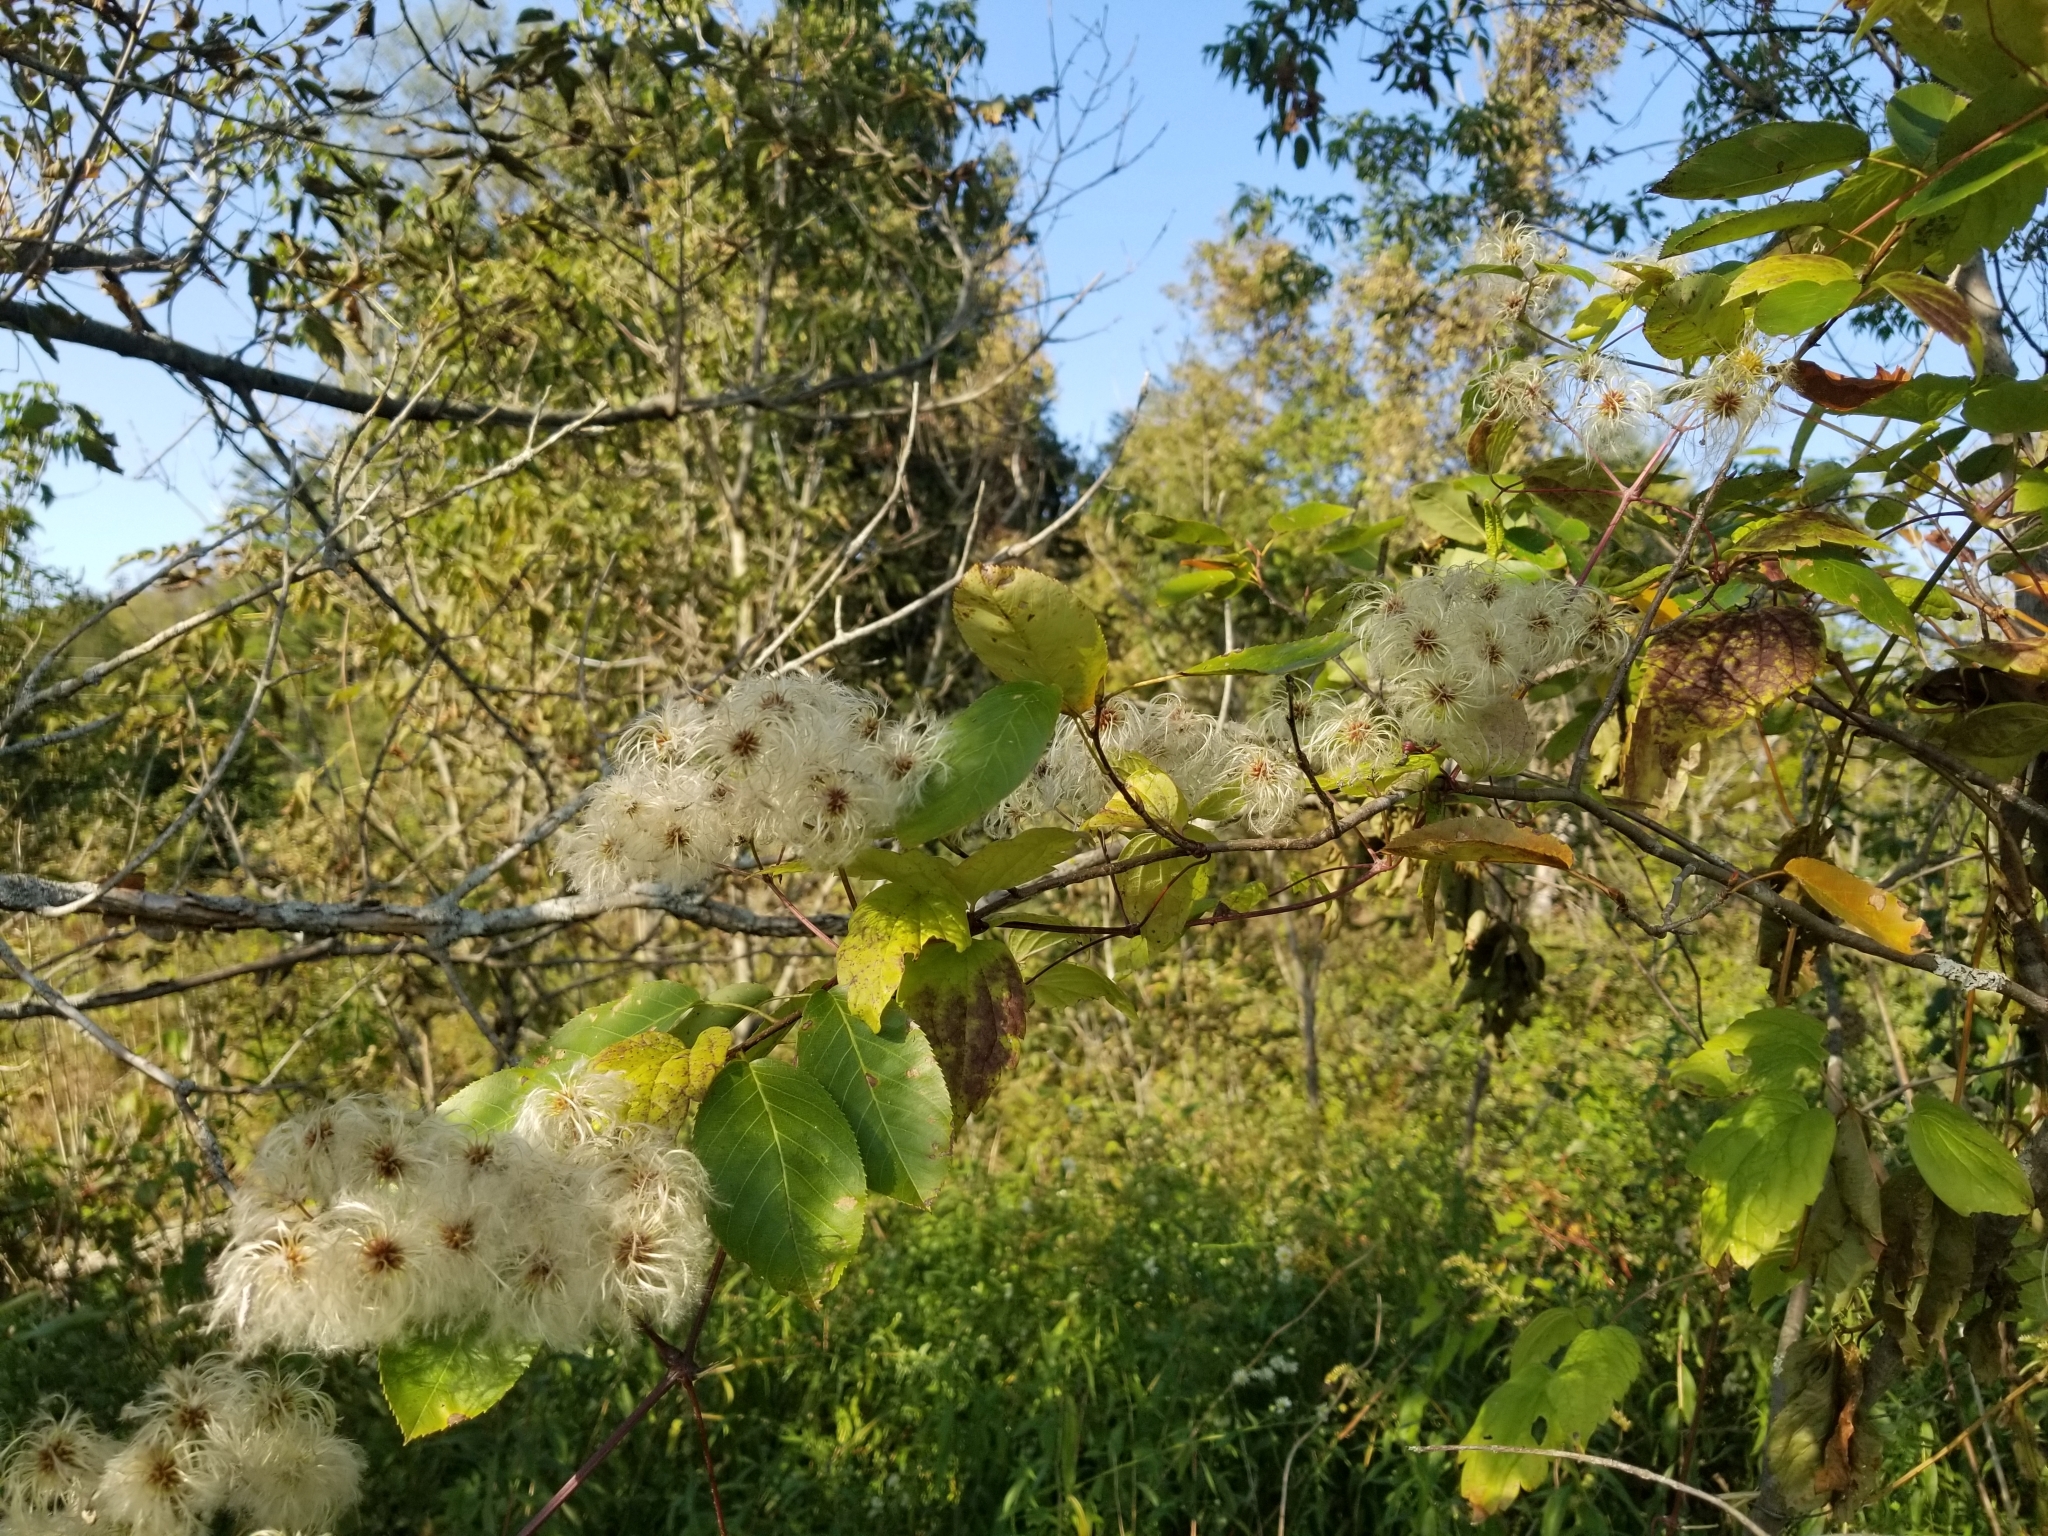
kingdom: Plantae
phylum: Tracheophyta
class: Magnoliopsida
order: Ranunculales
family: Ranunculaceae
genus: Clematis
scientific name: Clematis virginiana
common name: Virgin's-bower
